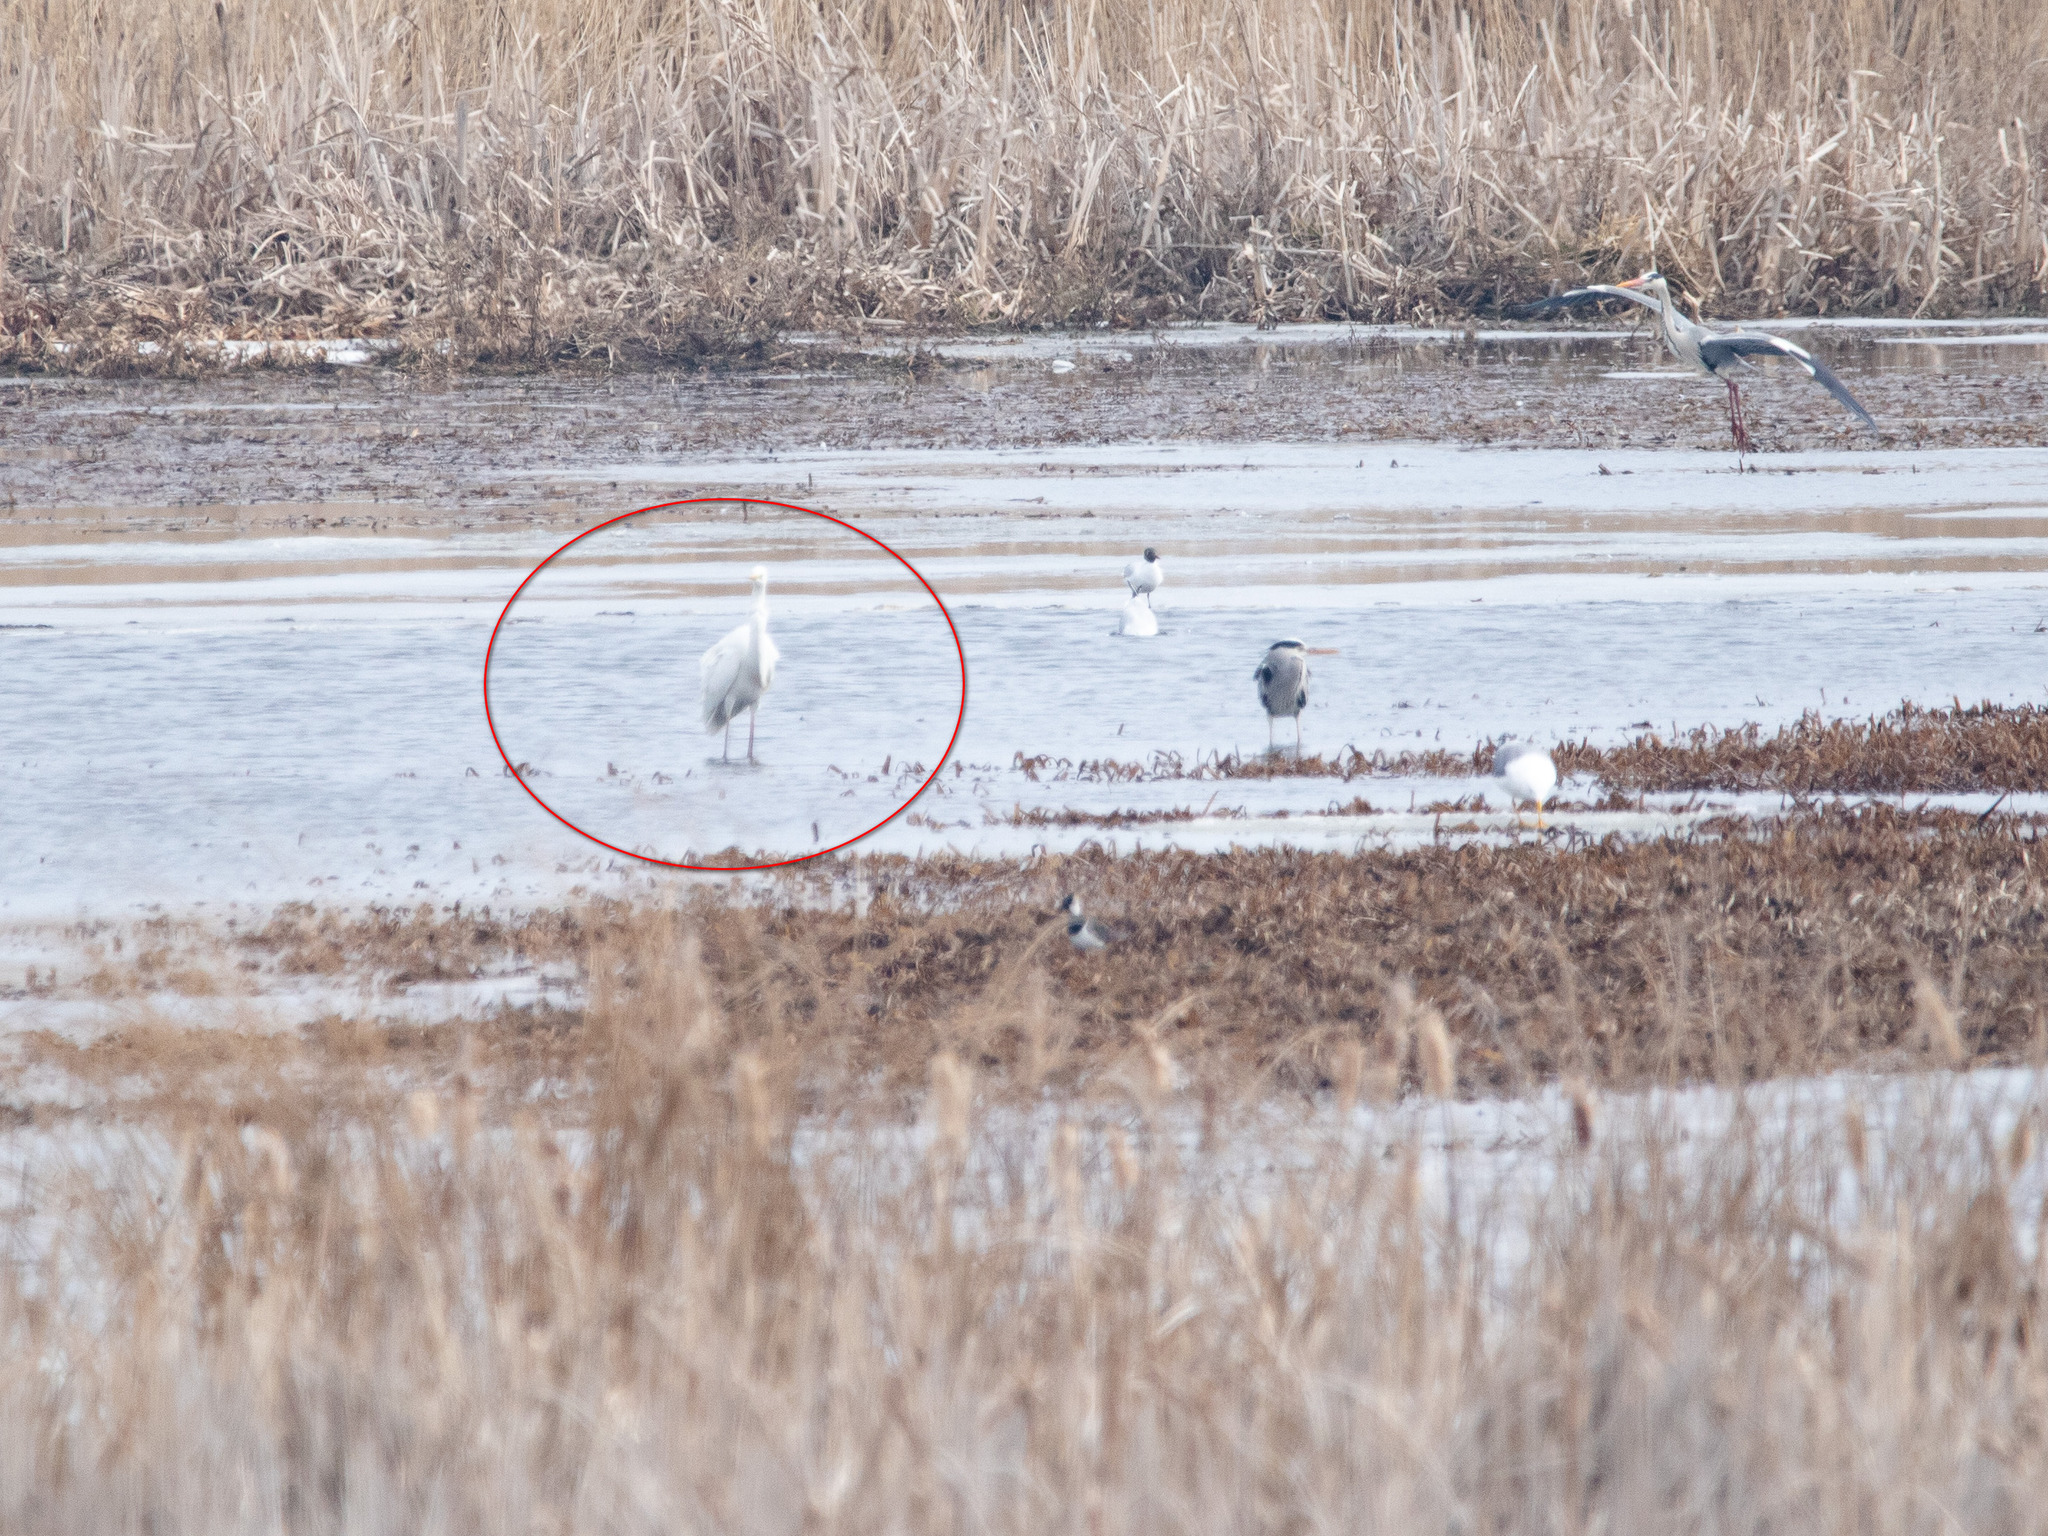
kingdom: Animalia
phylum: Chordata
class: Aves
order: Pelecaniformes
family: Ardeidae
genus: Ardea
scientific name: Ardea alba
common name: Great egret
